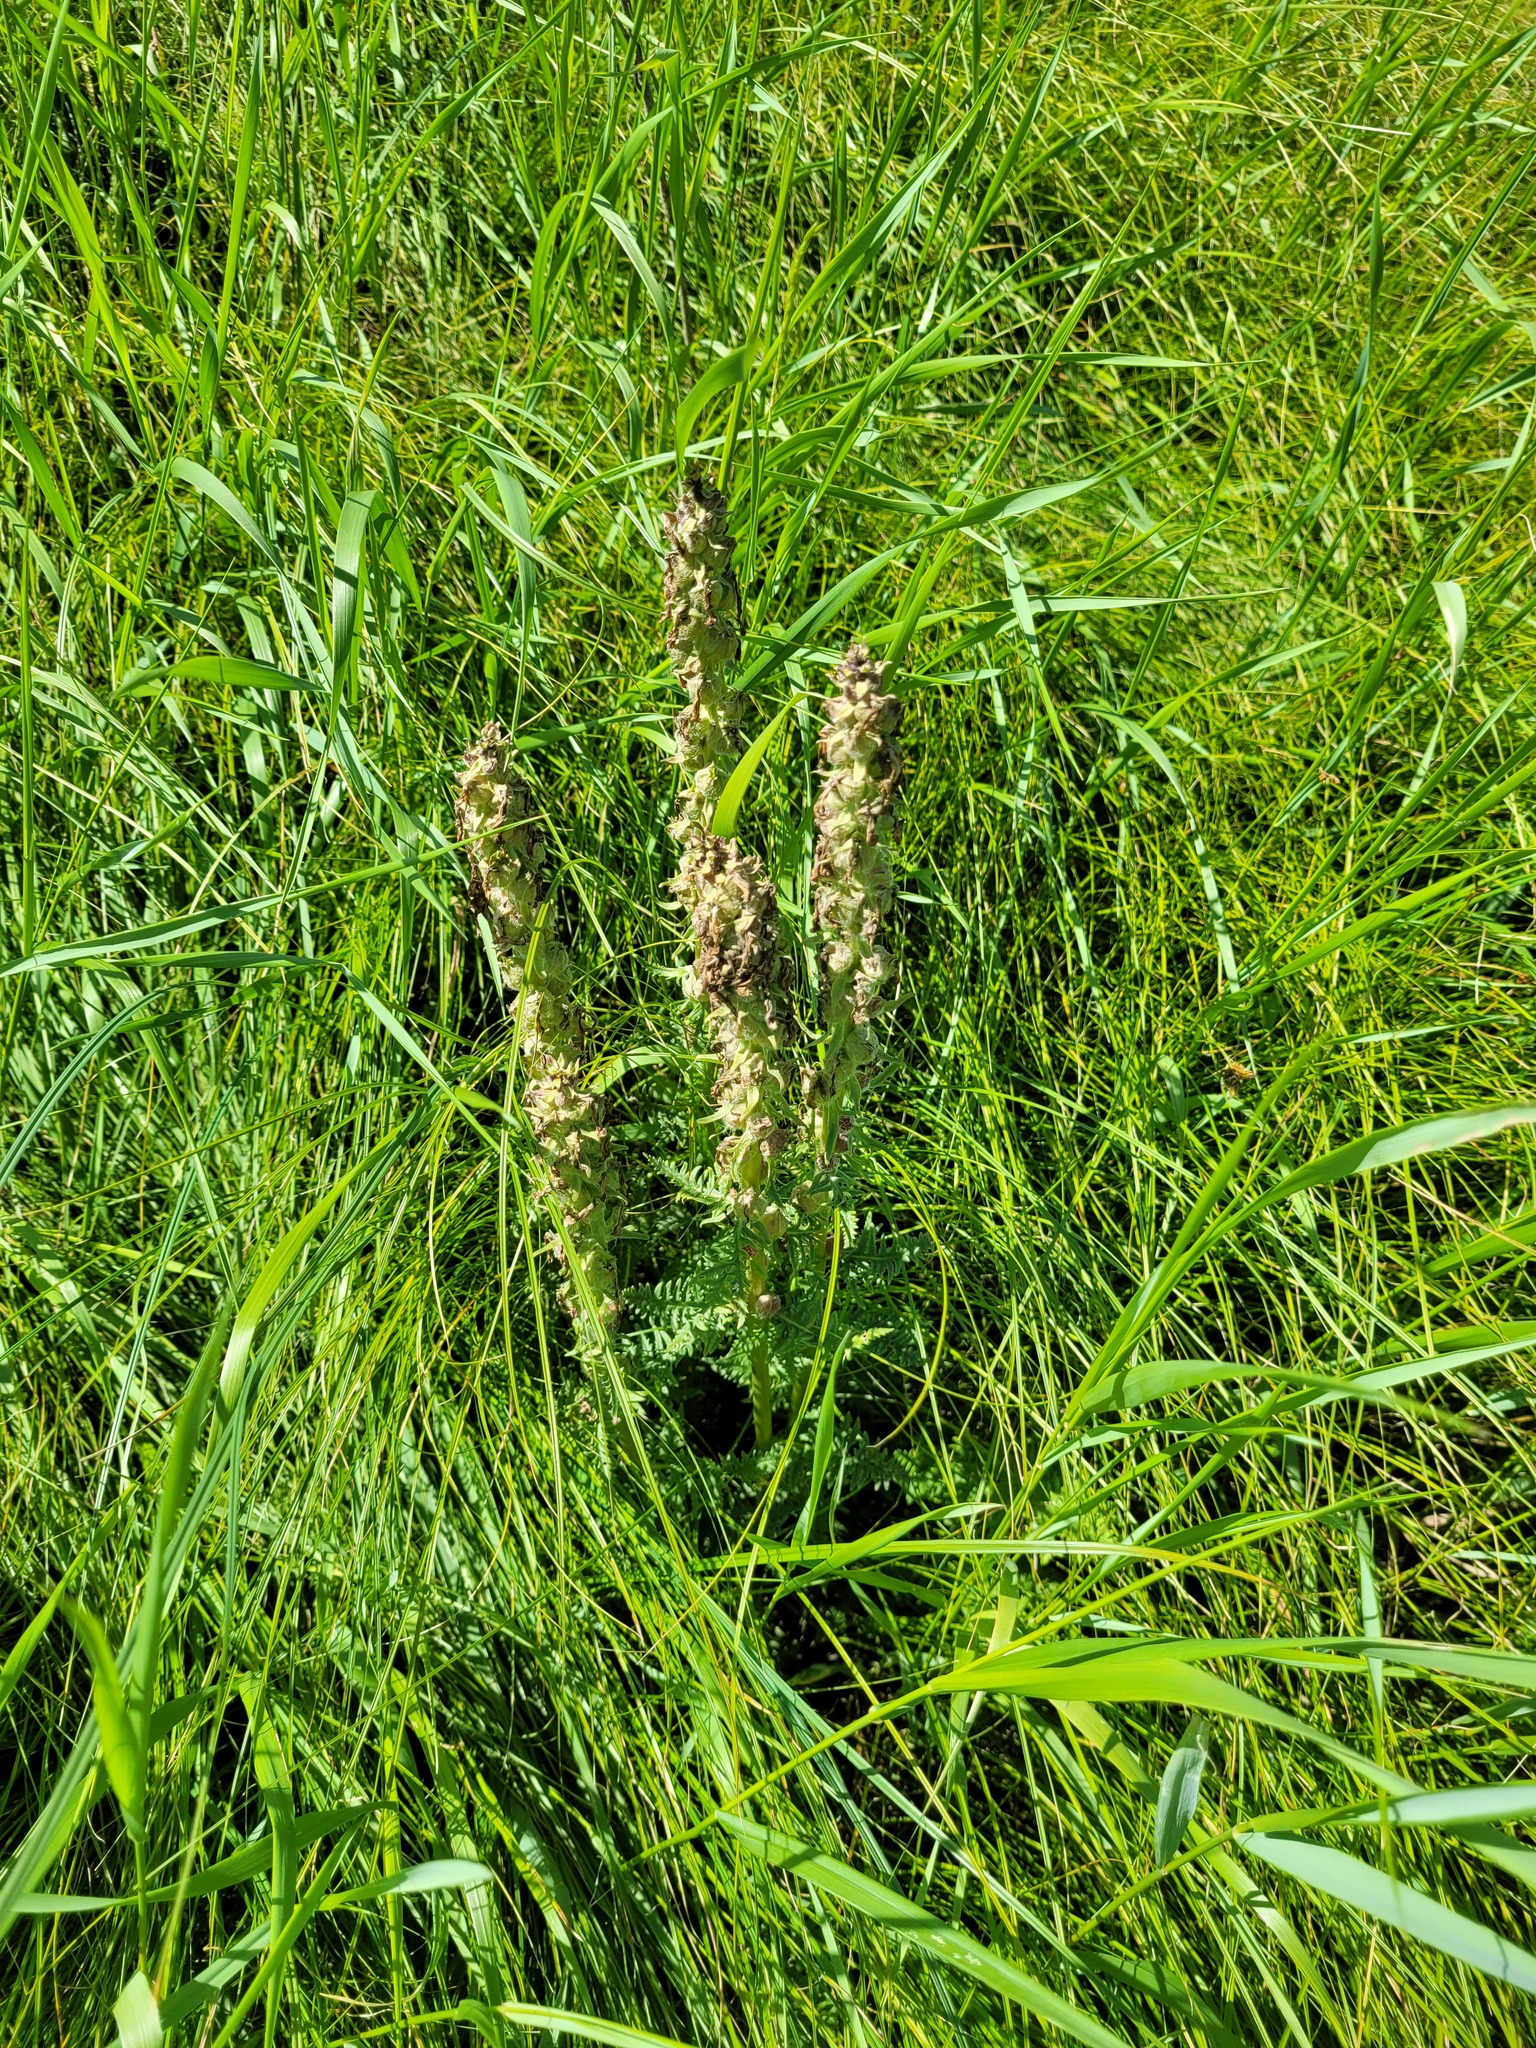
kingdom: Plantae
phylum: Tracheophyta
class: Magnoliopsida
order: Lamiales
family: Orobanchaceae
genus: Pedicularis
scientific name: Pedicularis dasystachys
